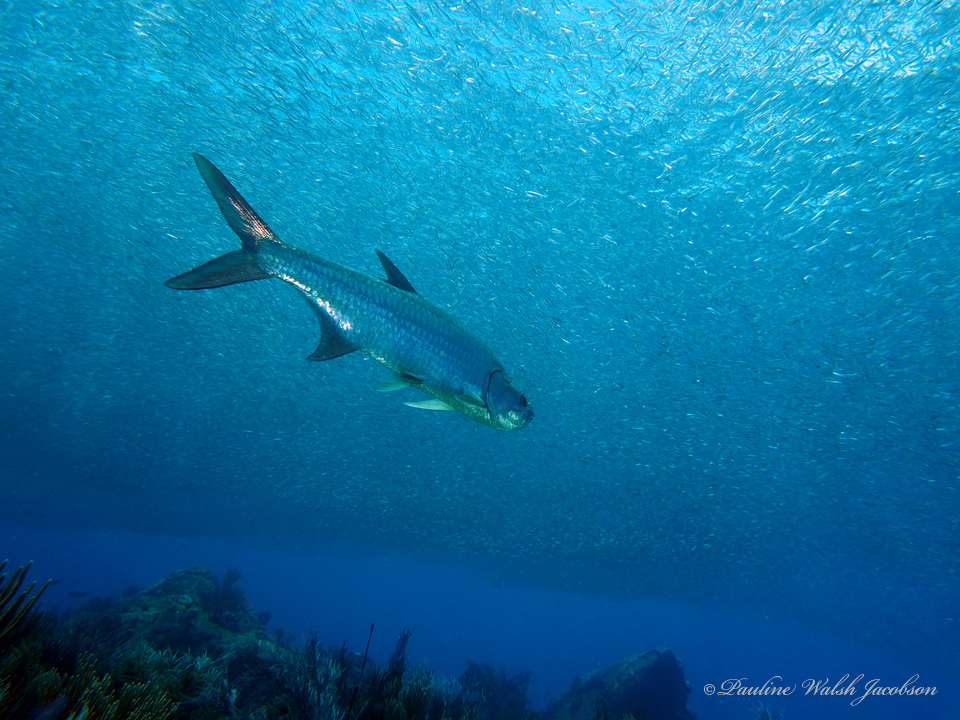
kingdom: Animalia
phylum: Chordata
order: Elopiformes
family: Megalopidae
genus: Megalops
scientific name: Megalops atlanticus
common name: Tarpon
